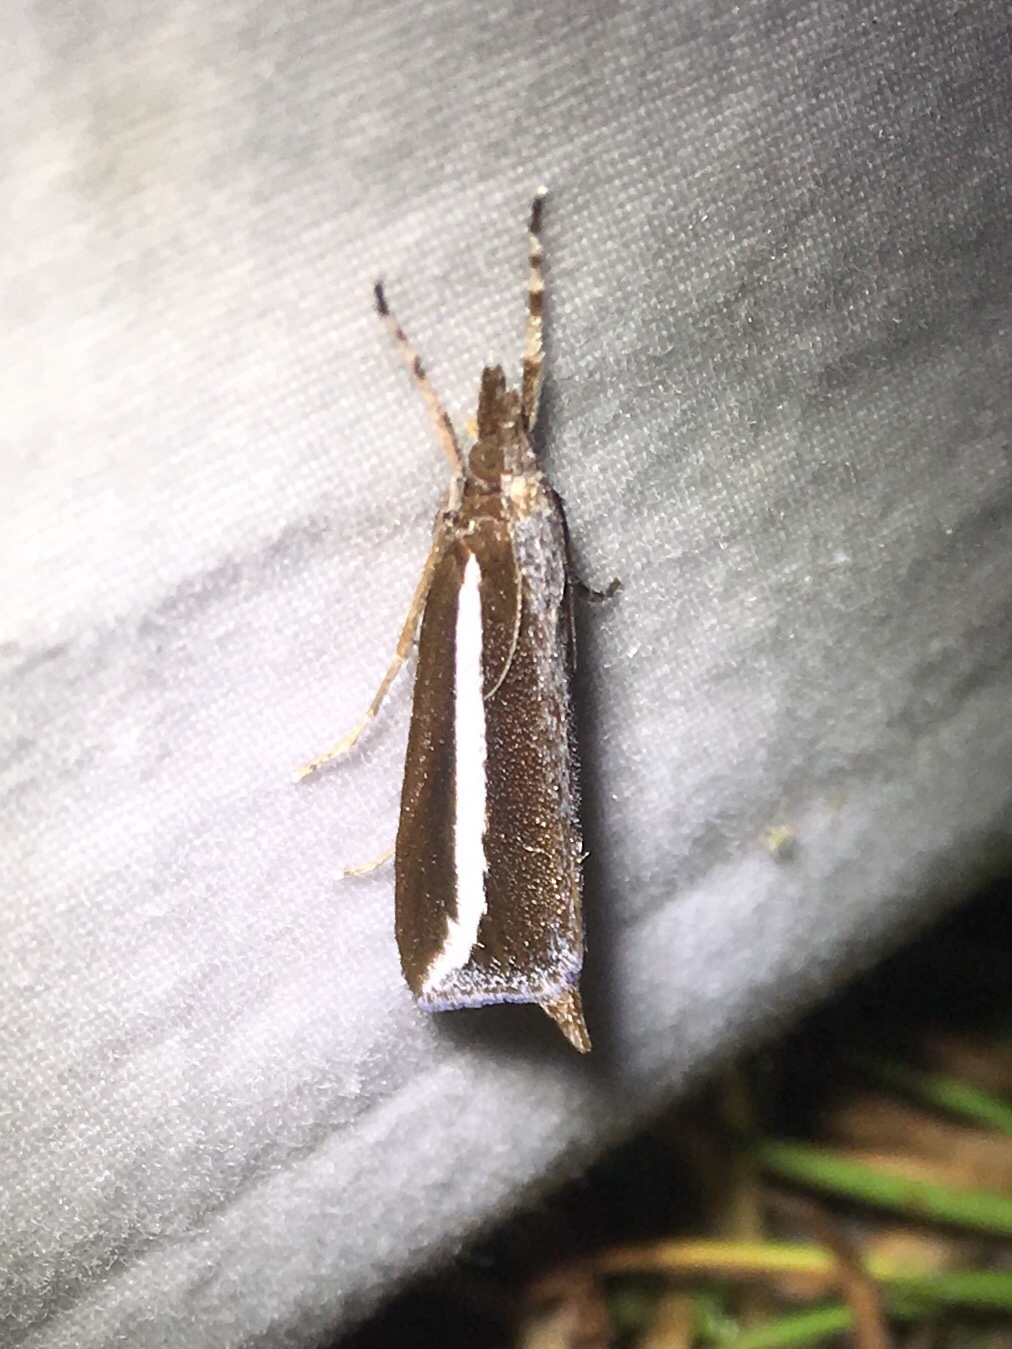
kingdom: Animalia
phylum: Arthropoda
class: Insecta
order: Lepidoptera
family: Crambidae
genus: Carectocultus
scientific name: Carectocultus perstrialis
